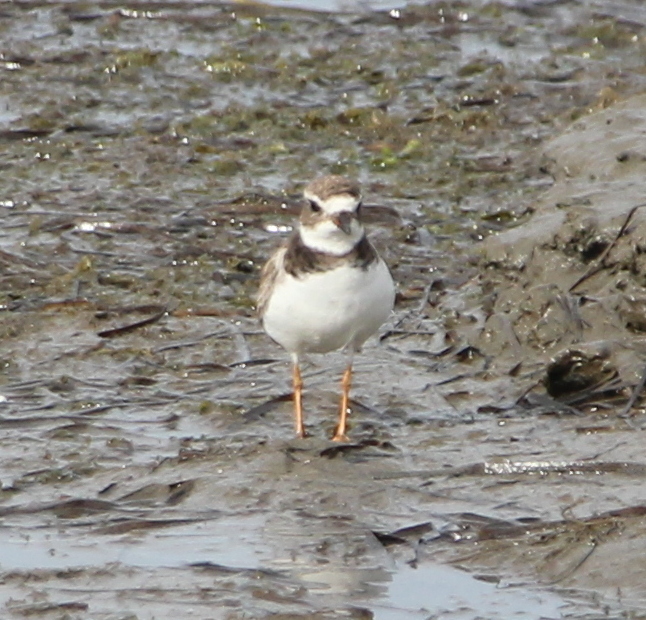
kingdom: Animalia
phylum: Chordata
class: Aves
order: Charadriiformes
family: Charadriidae
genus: Charadrius
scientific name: Charadrius semipalmatus
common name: Semipalmated plover
